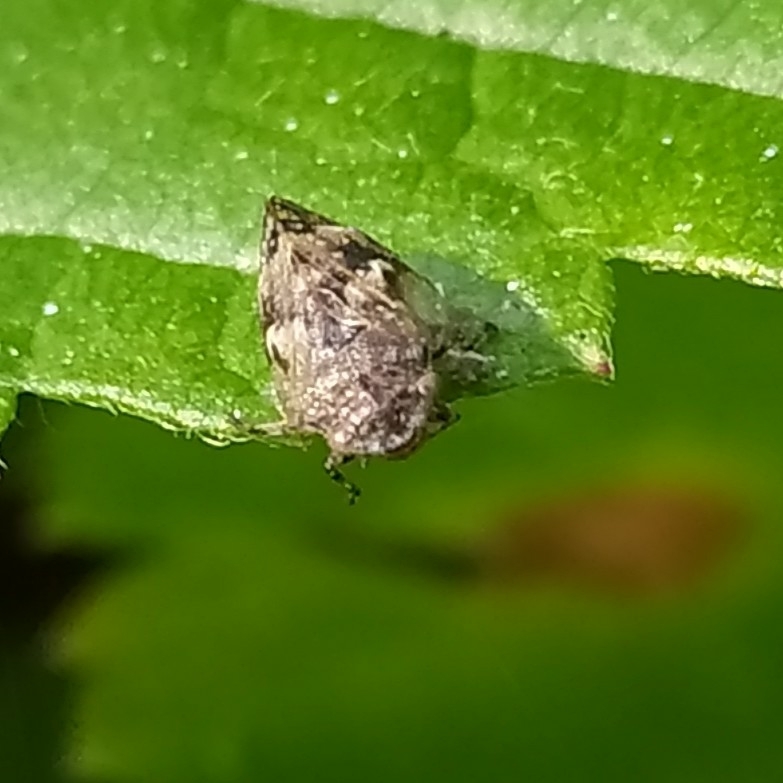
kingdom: Animalia
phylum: Arthropoda
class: Insecta
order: Hemiptera
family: Aphrophoridae
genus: Peuceptyelus
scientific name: Peuceptyelus coriaceus
